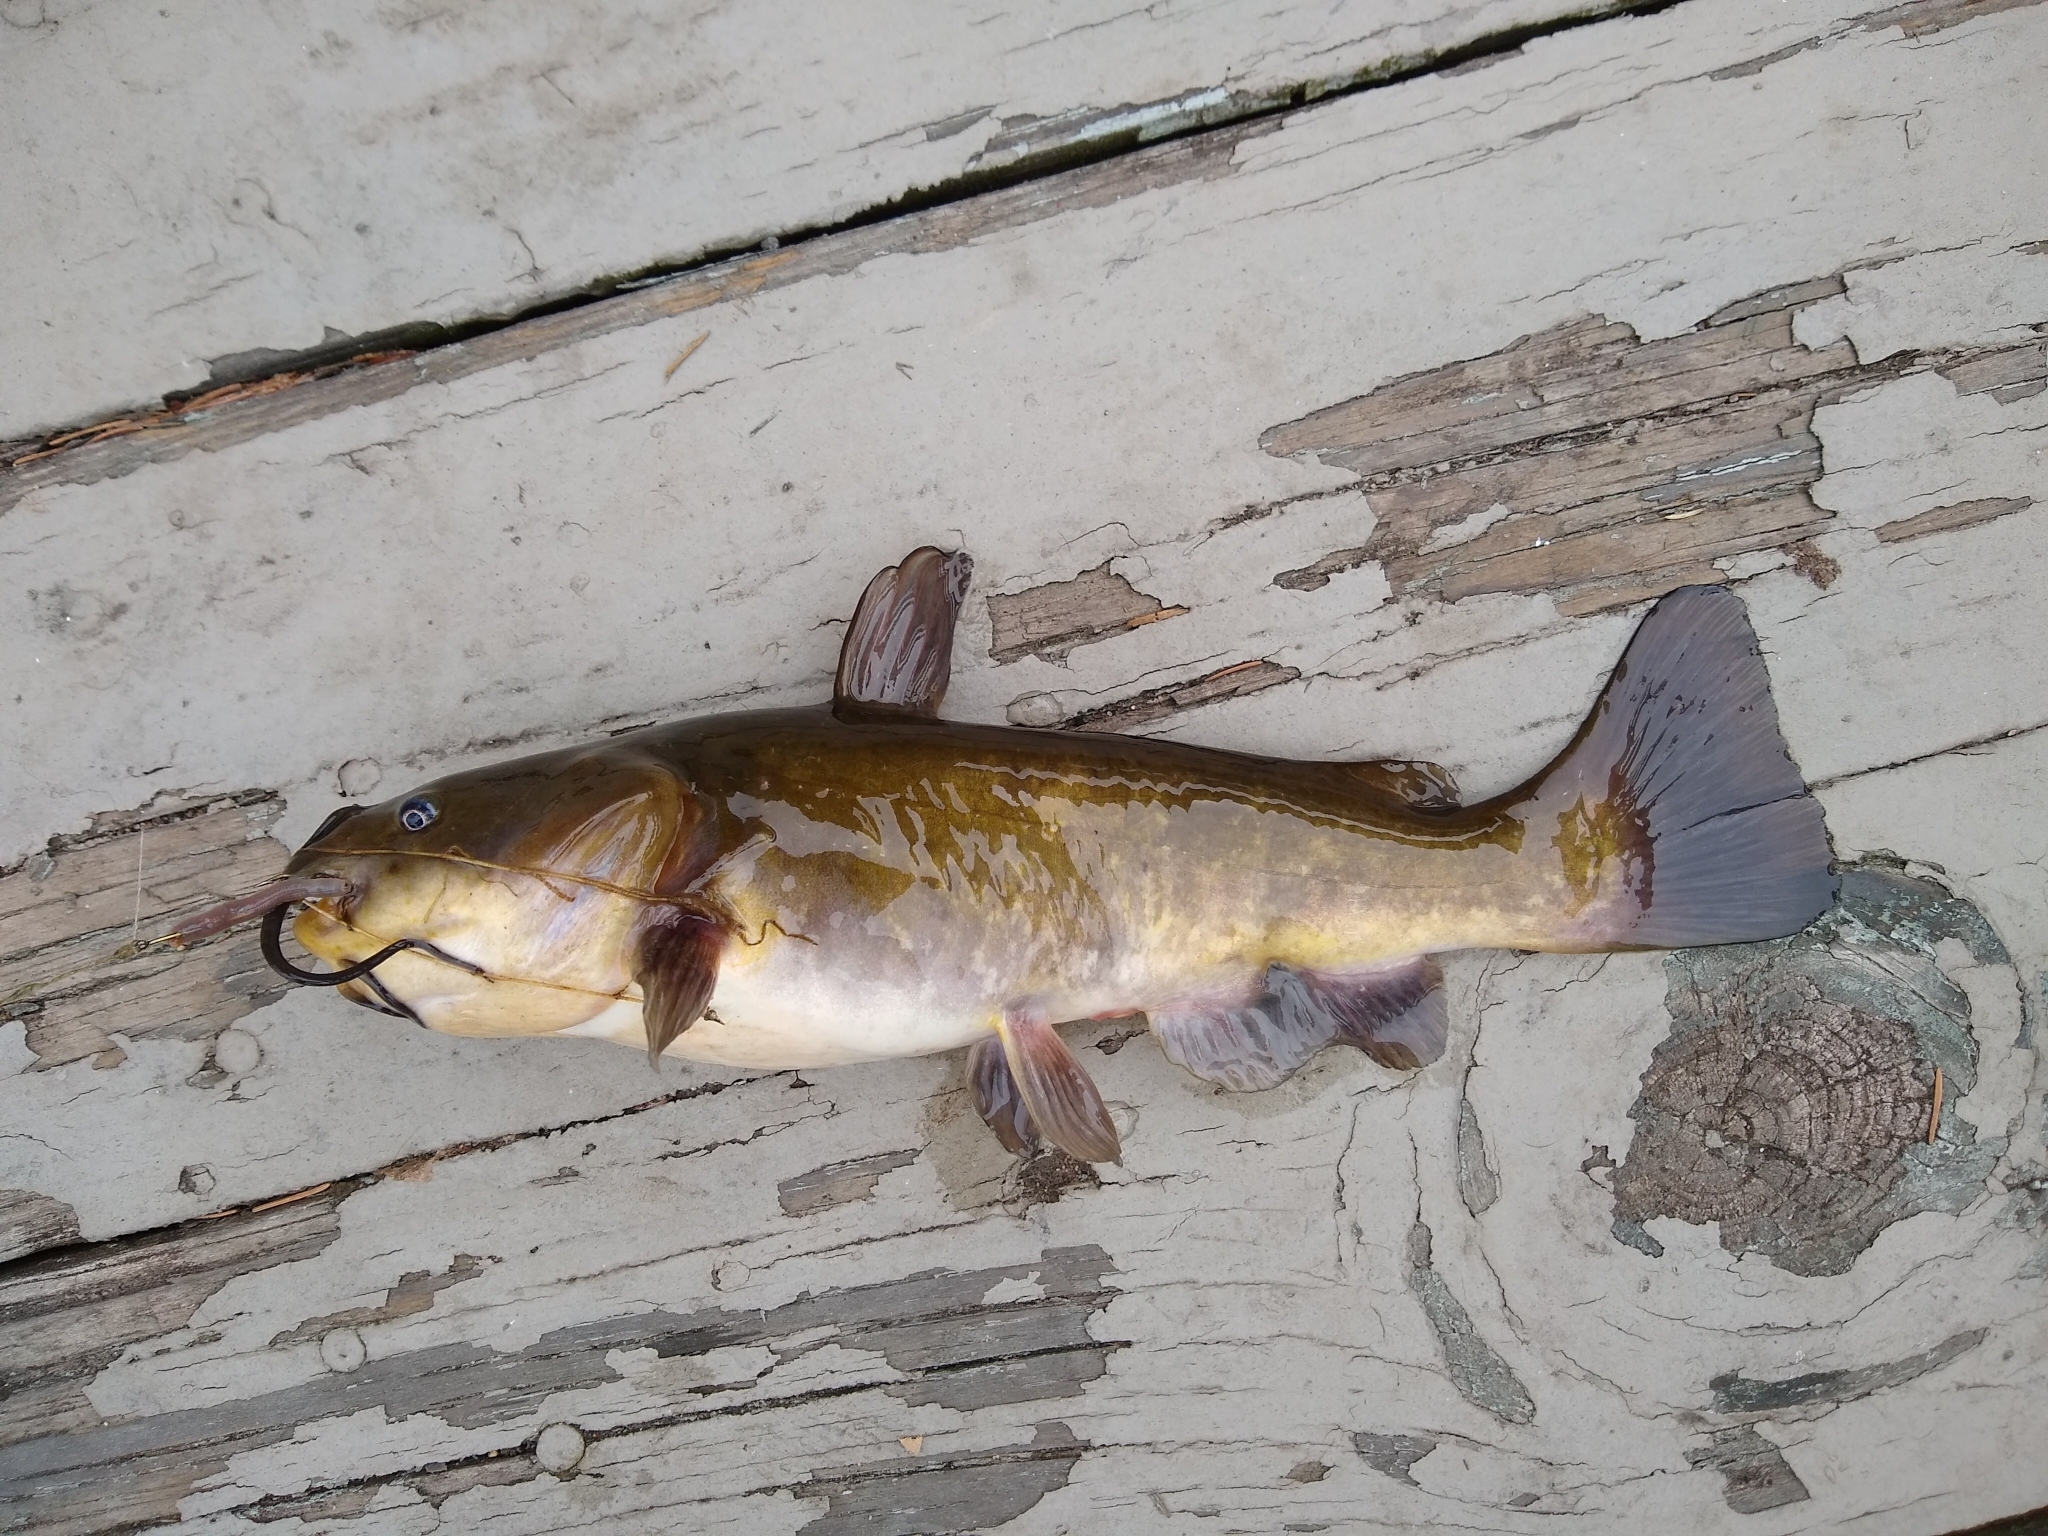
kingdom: Animalia
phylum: Chordata
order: Siluriformes
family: Ictaluridae
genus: Ameiurus
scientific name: Ameiurus nebulosus
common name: Brown bullhead
